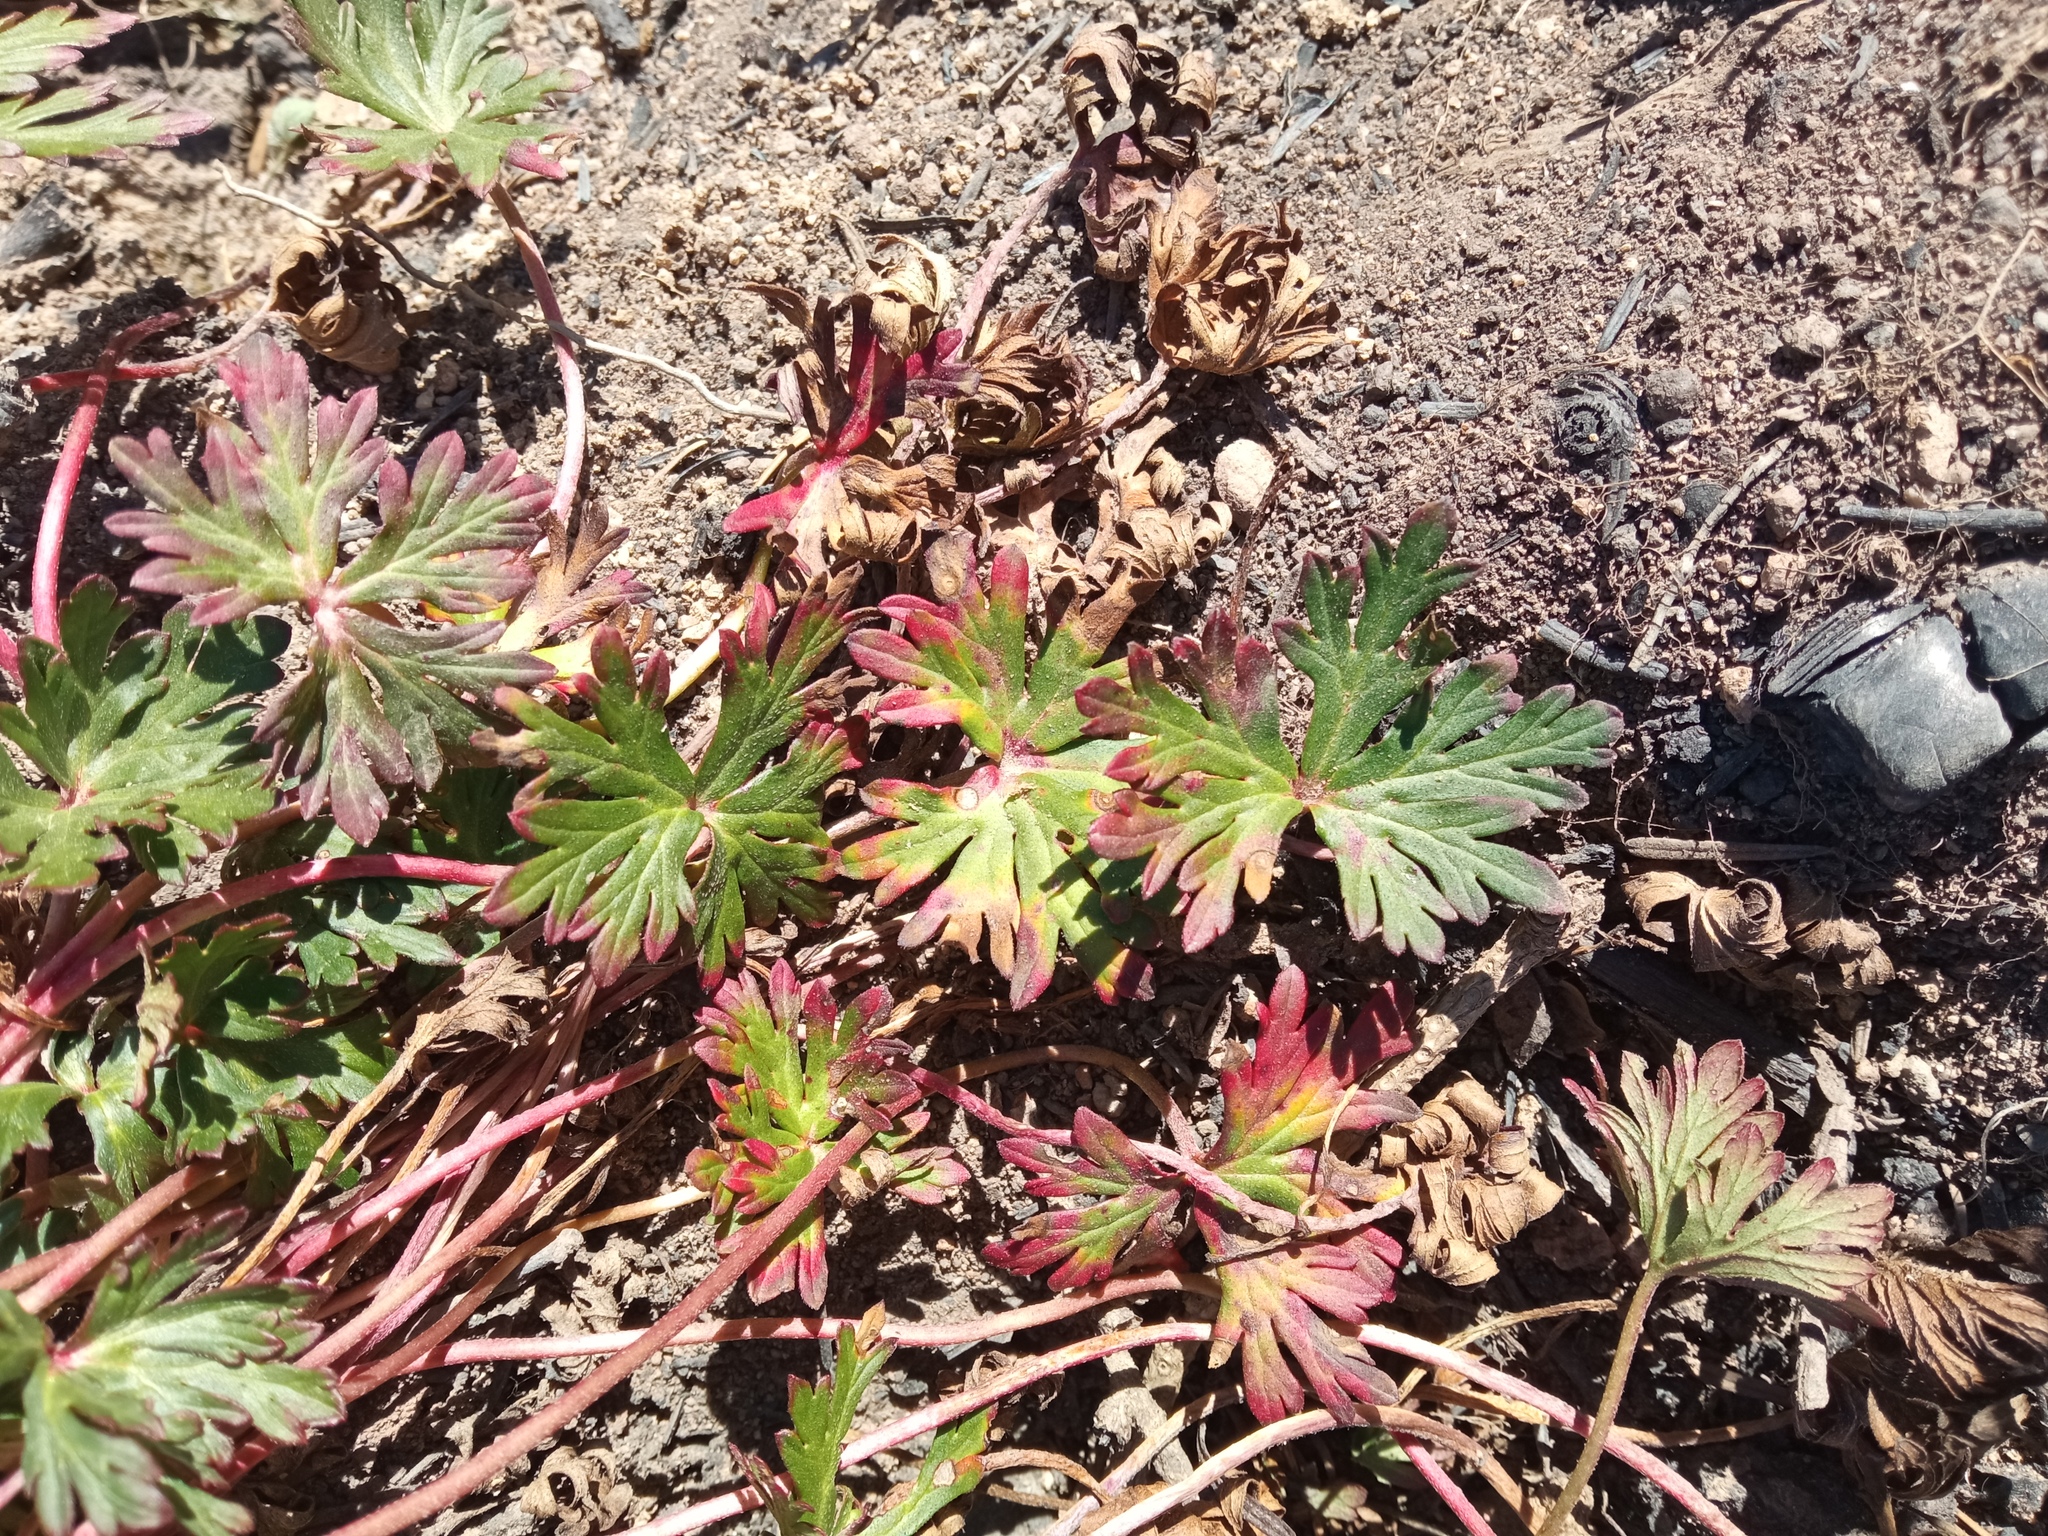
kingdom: Plantae
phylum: Tracheophyta
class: Magnoliopsida
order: Geraniales
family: Geraniaceae
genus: Geranium
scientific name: Geranium columbinum
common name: Long-stalked crane's-bill
